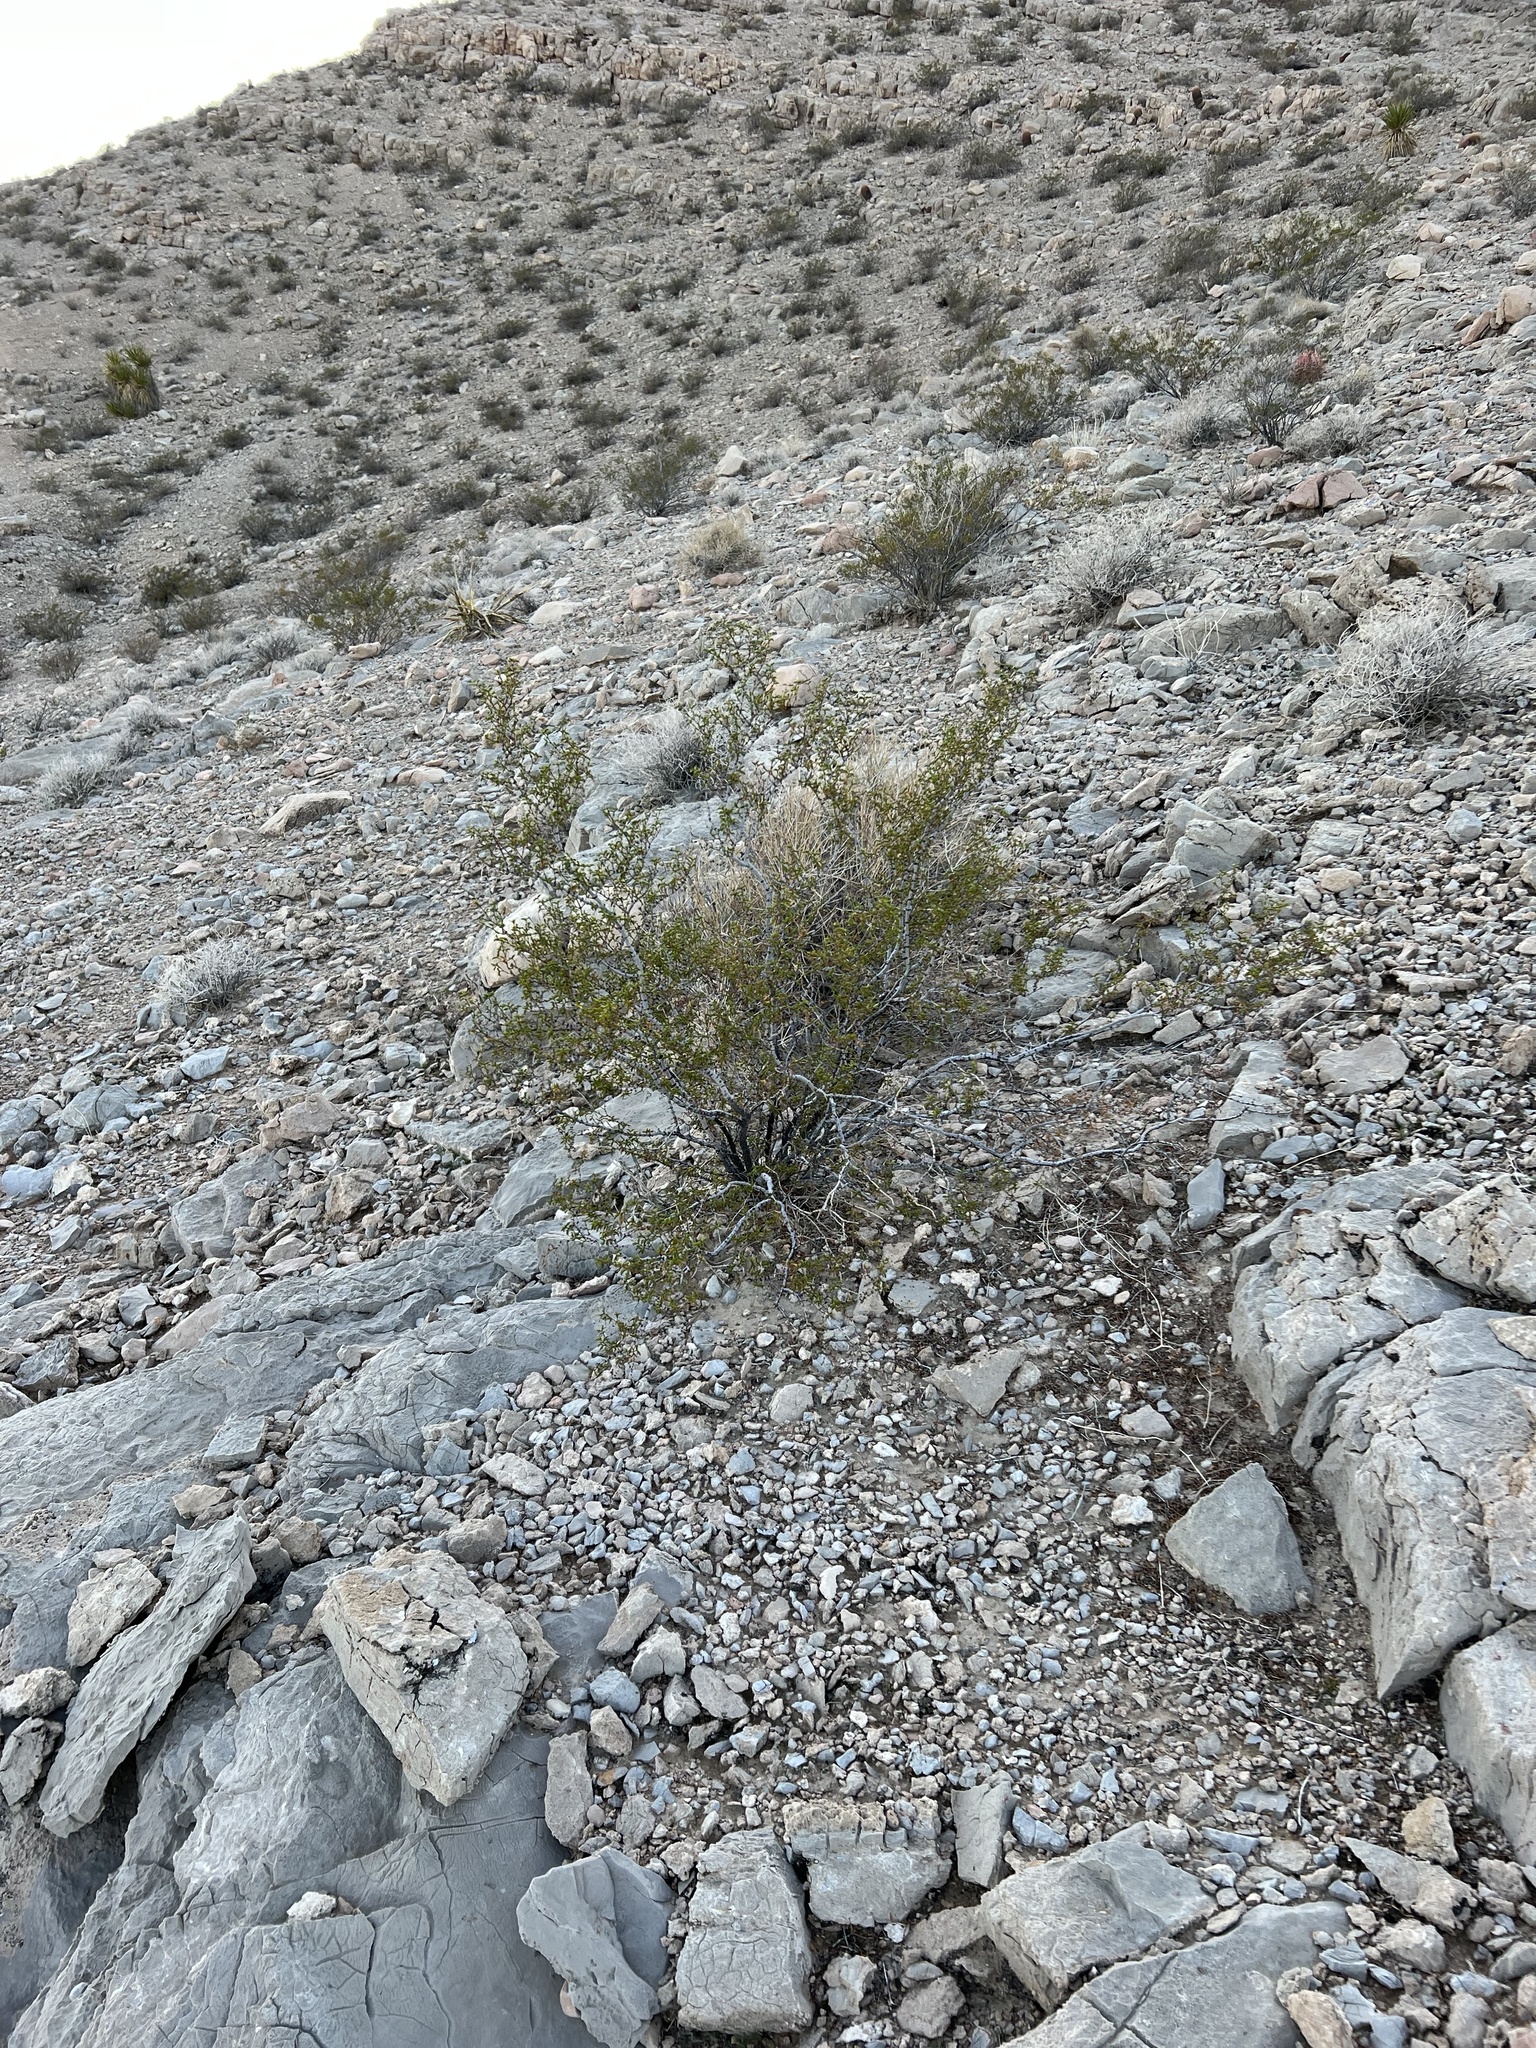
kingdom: Plantae
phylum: Tracheophyta
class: Magnoliopsida
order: Zygophyllales
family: Zygophyllaceae
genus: Larrea
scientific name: Larrea tridentata
